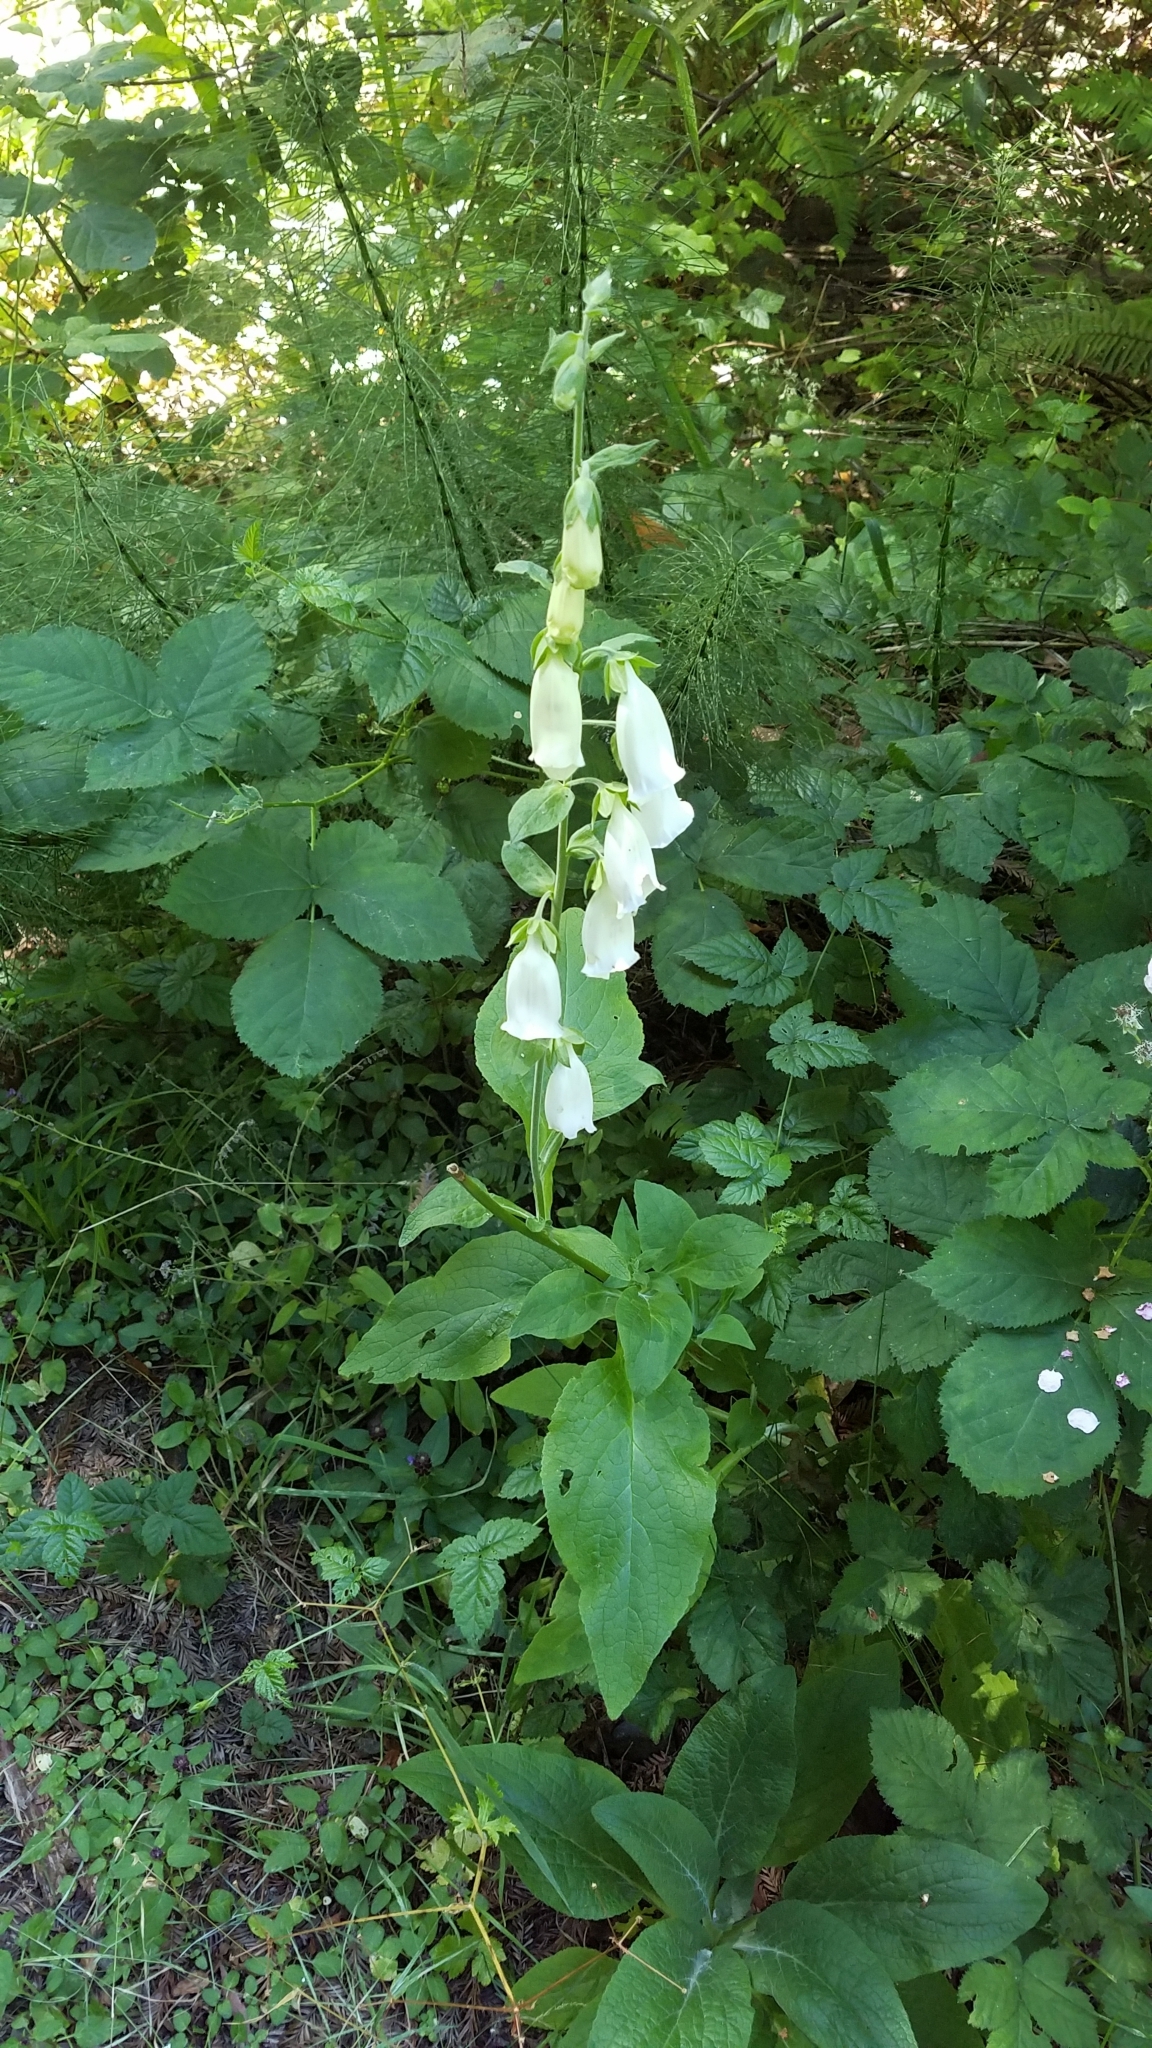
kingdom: Plantae
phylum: Tracheophyta
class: Magnoliopsida
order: Lamiales
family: Plantaginaceae
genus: Digitalis
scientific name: Digitalis purpurea
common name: Foxglove
